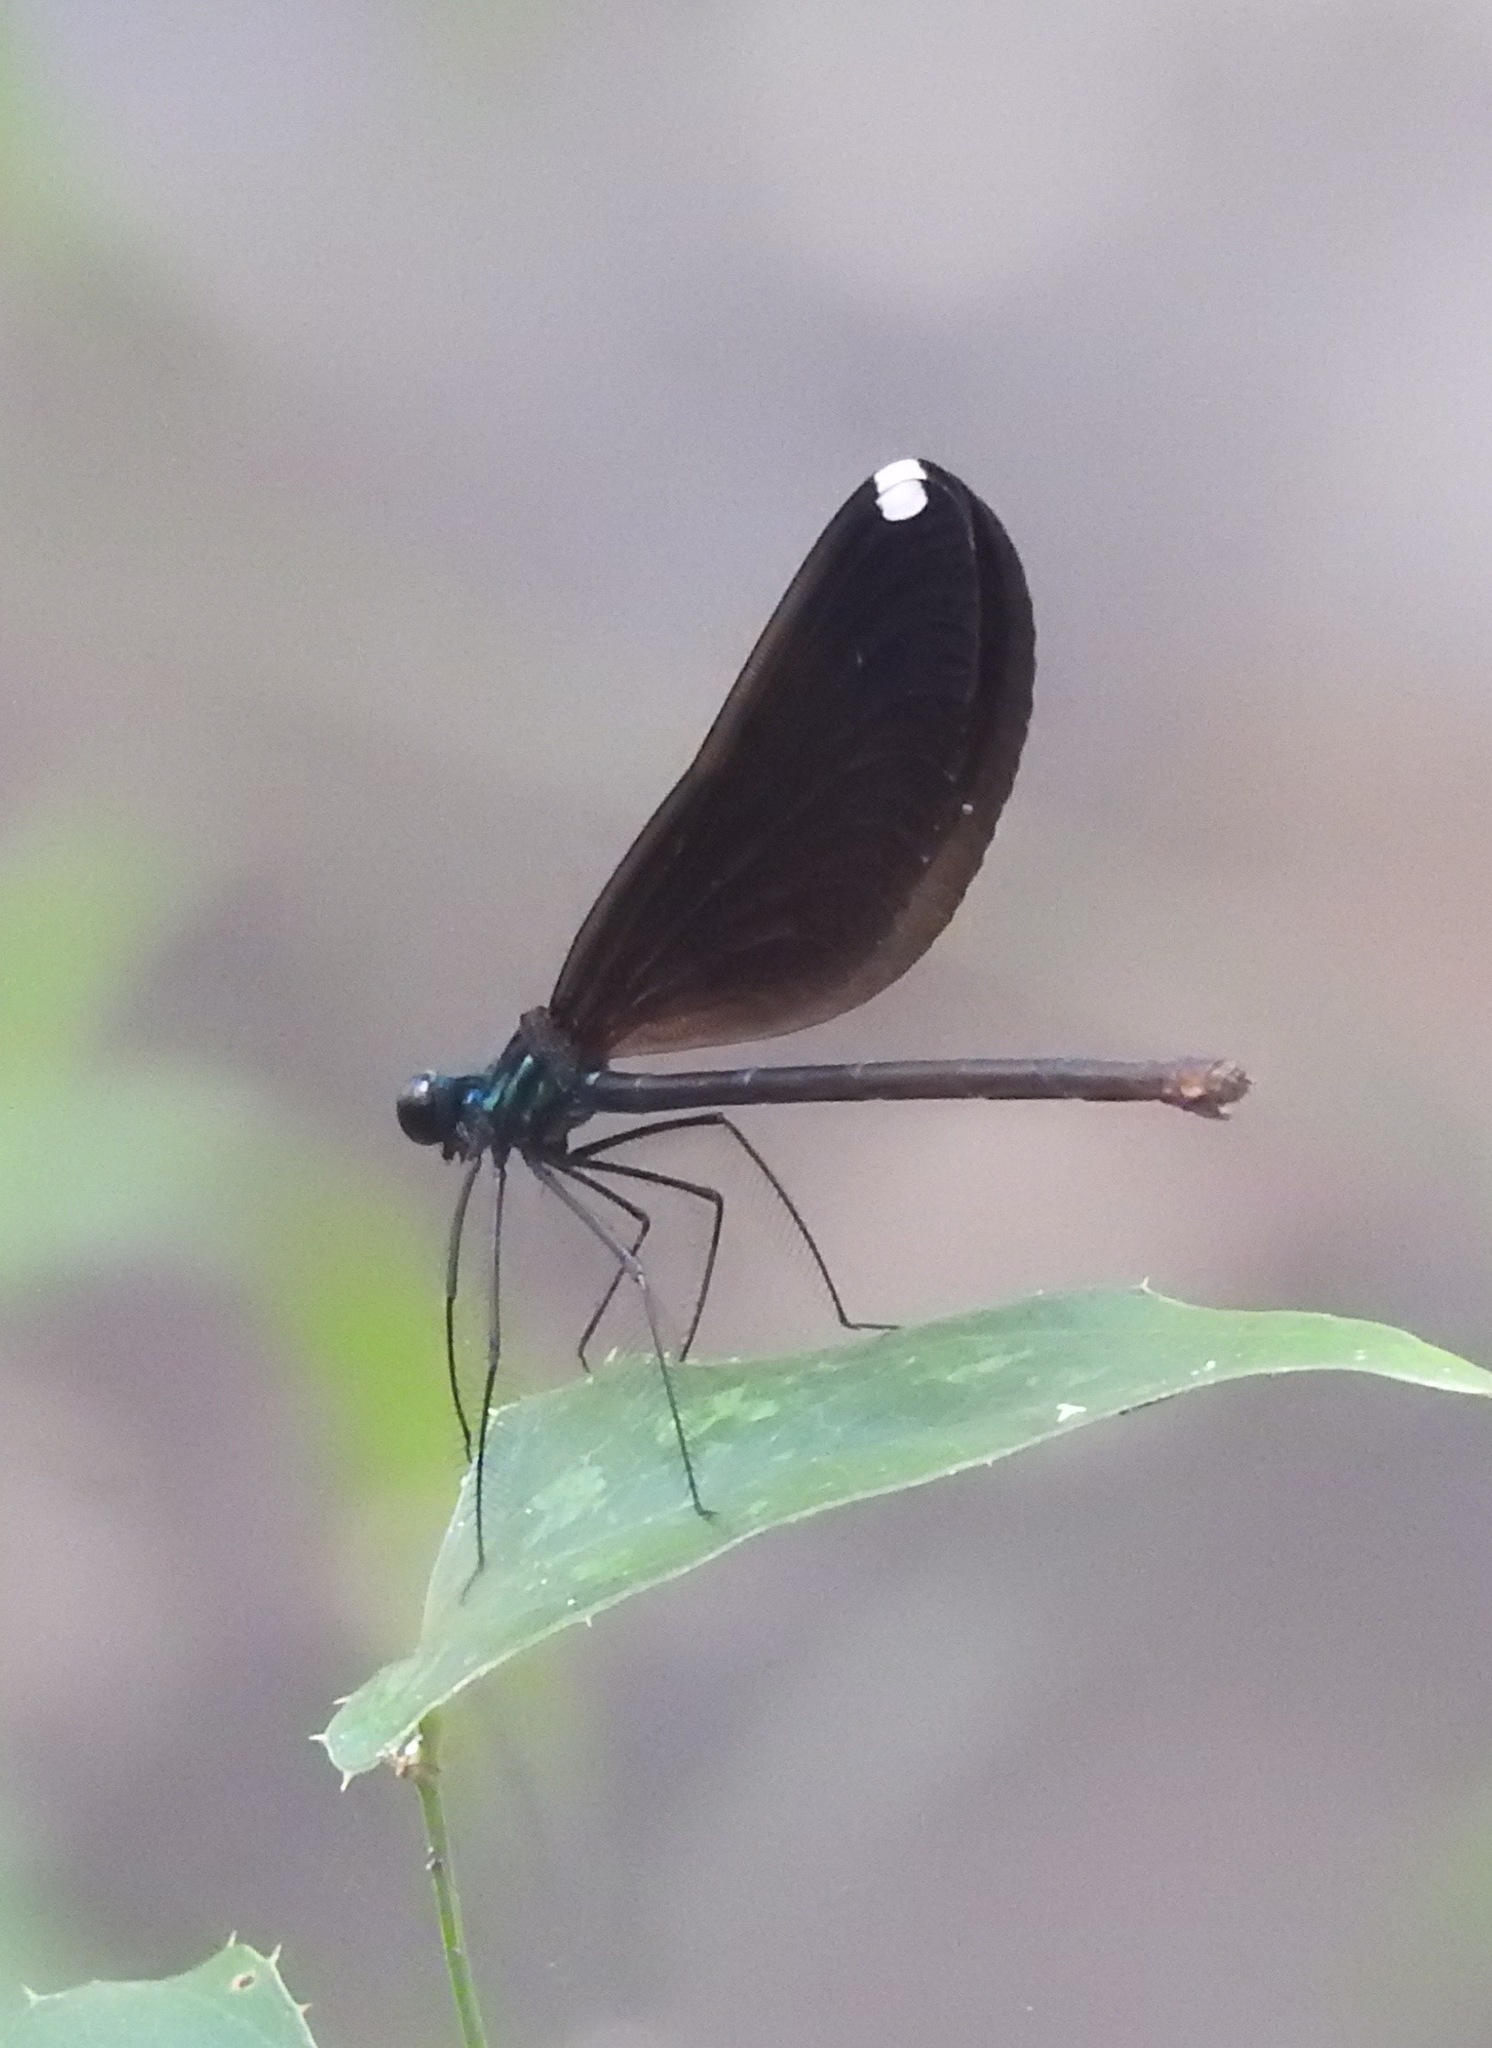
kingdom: Animalia
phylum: Arthropoda
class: Insecta
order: Odonata
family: Calopterygidae
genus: Calopteryx
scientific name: Calopteryx maculata
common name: Ebony jewelwing
